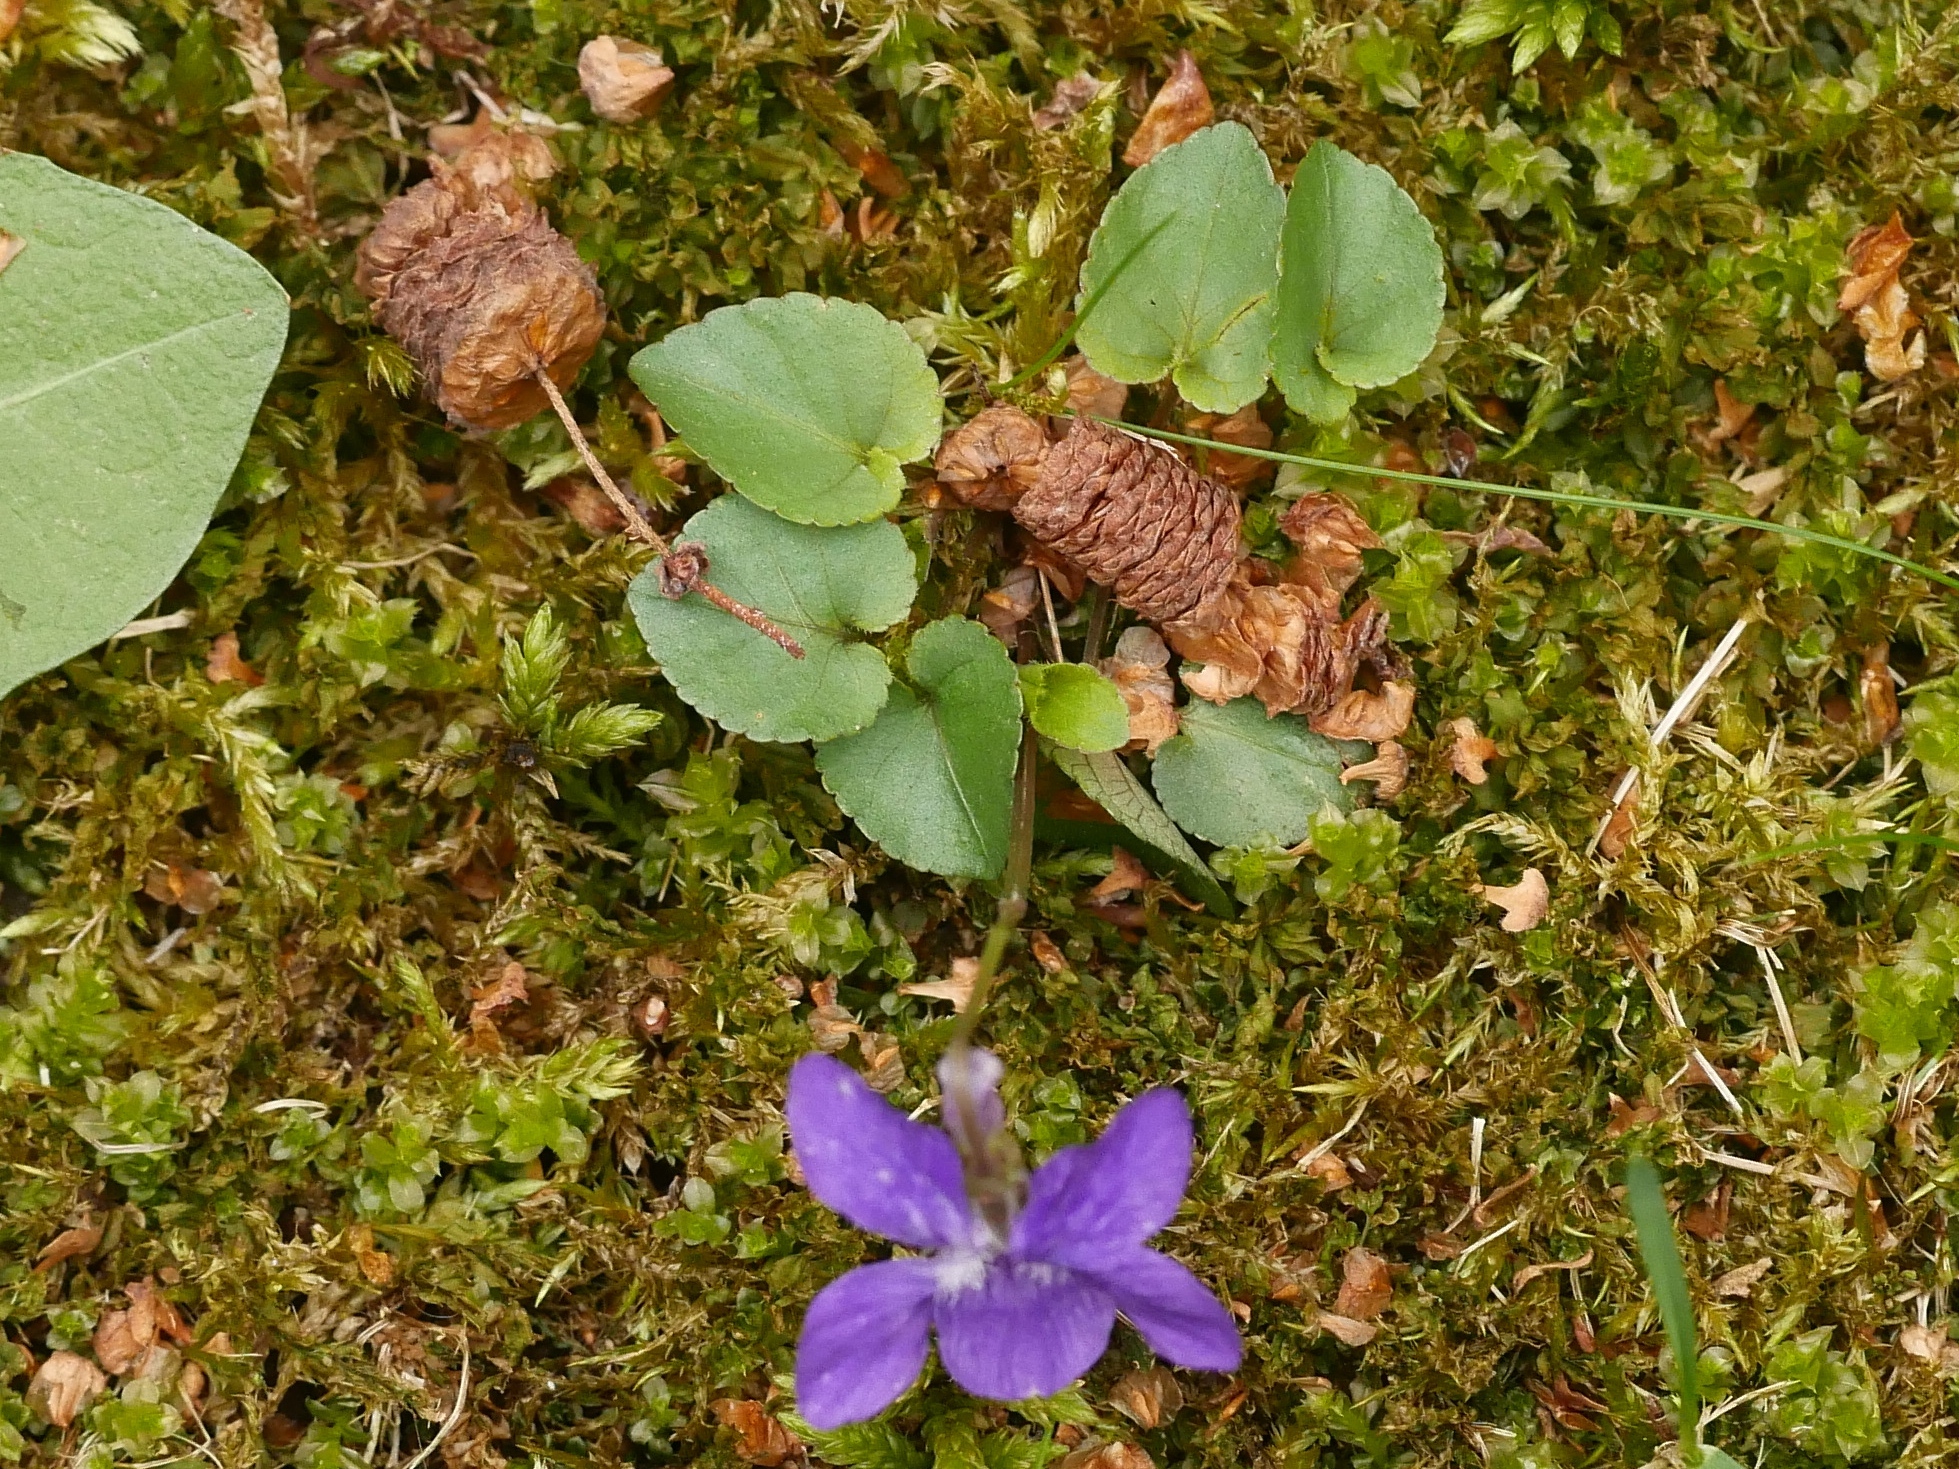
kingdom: Plantae
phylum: Tracheophyta
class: Magnoliopsida
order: Malpighiales
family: Violaceae
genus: Viola
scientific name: Viola riviniana
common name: Common dog-violet
